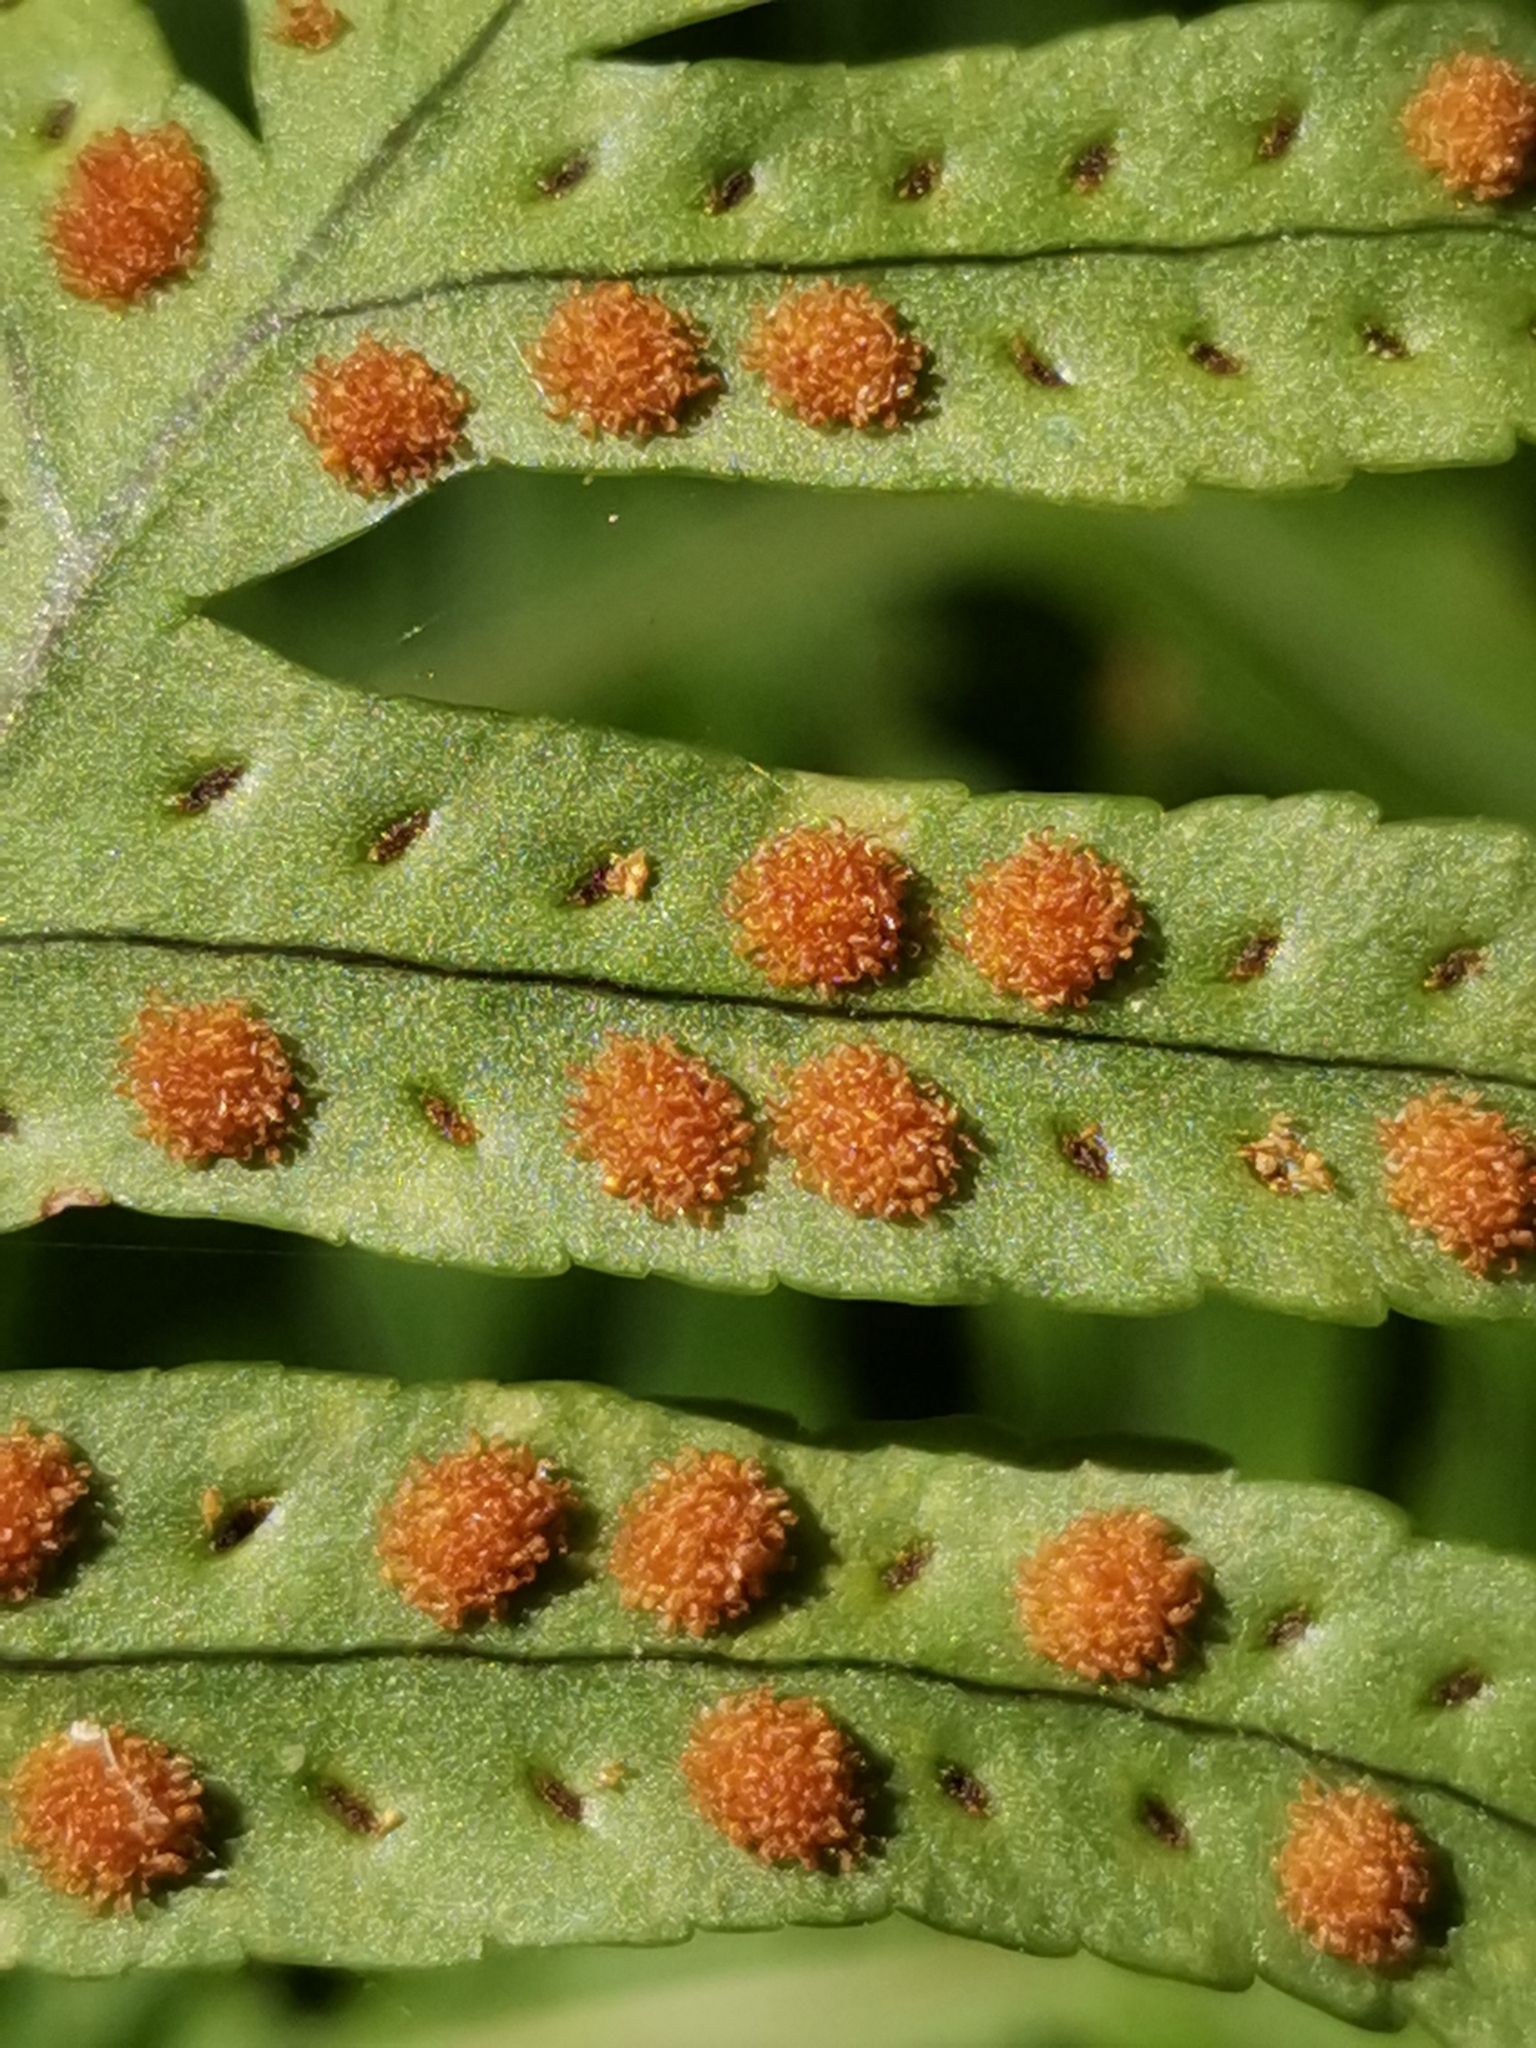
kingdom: Plantae
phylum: Tracheophyta
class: Polypodiopsida
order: Polypodiales
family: Polypodiaceae
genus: Polypodium
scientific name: Polypodium cambricum
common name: Southern polypody
